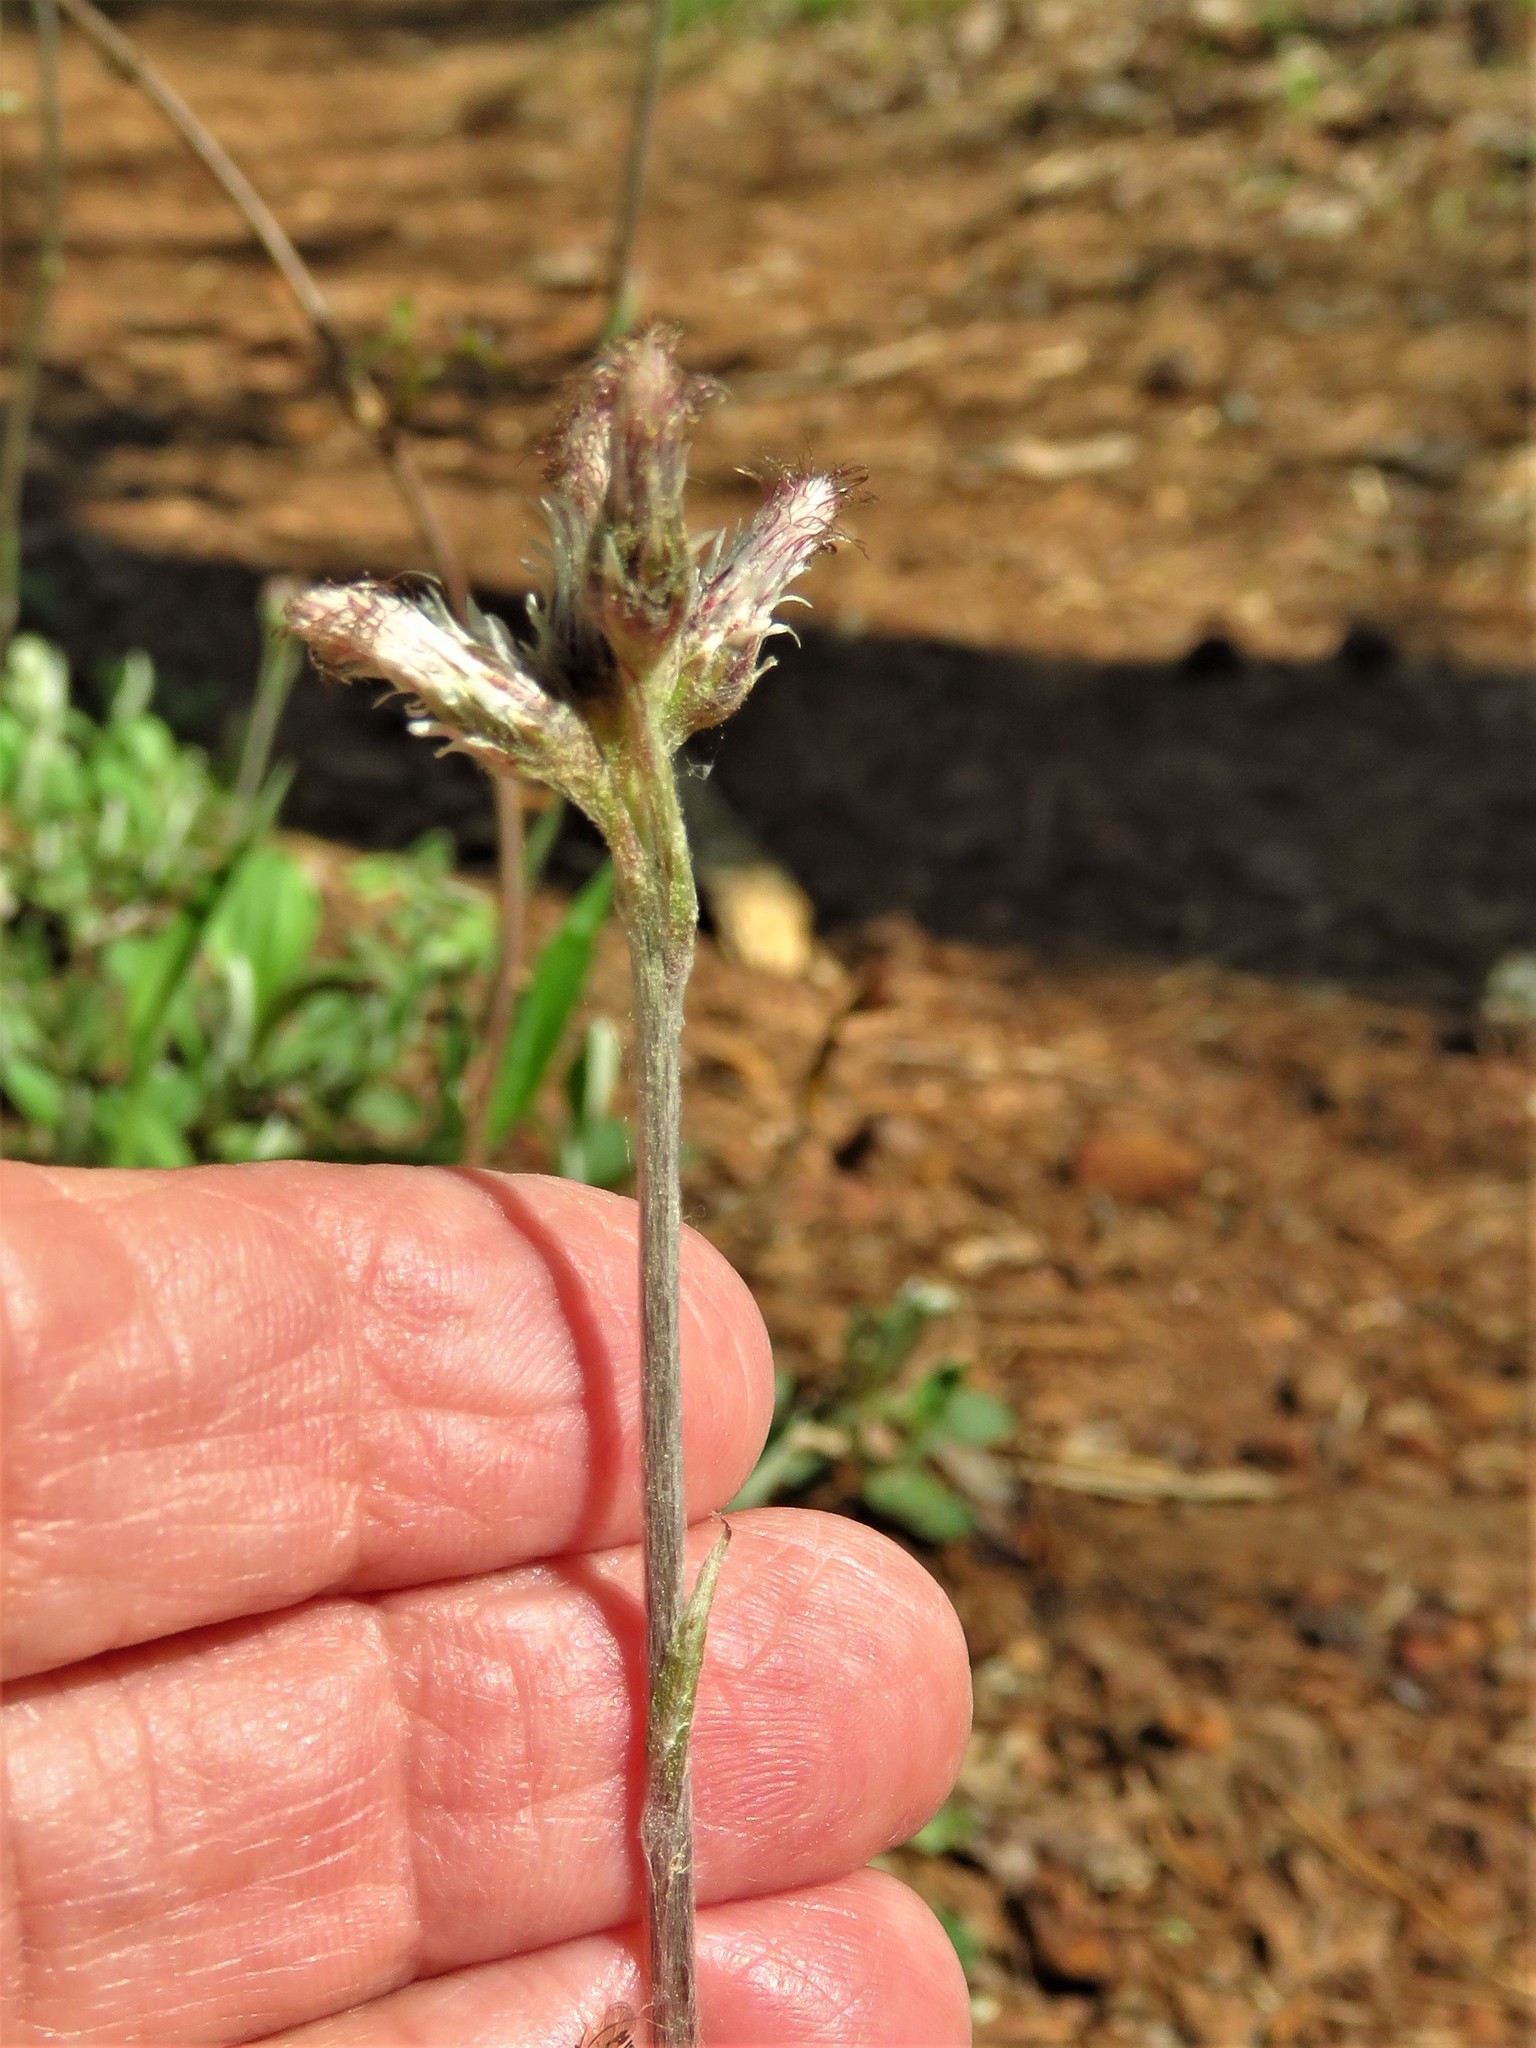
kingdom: Plantae
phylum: Tracheophyta
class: Magnoliopsida
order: Asterales
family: Asteraceae
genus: Antennaria
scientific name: Antennaria parlinii
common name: Parlin's pussytoes
